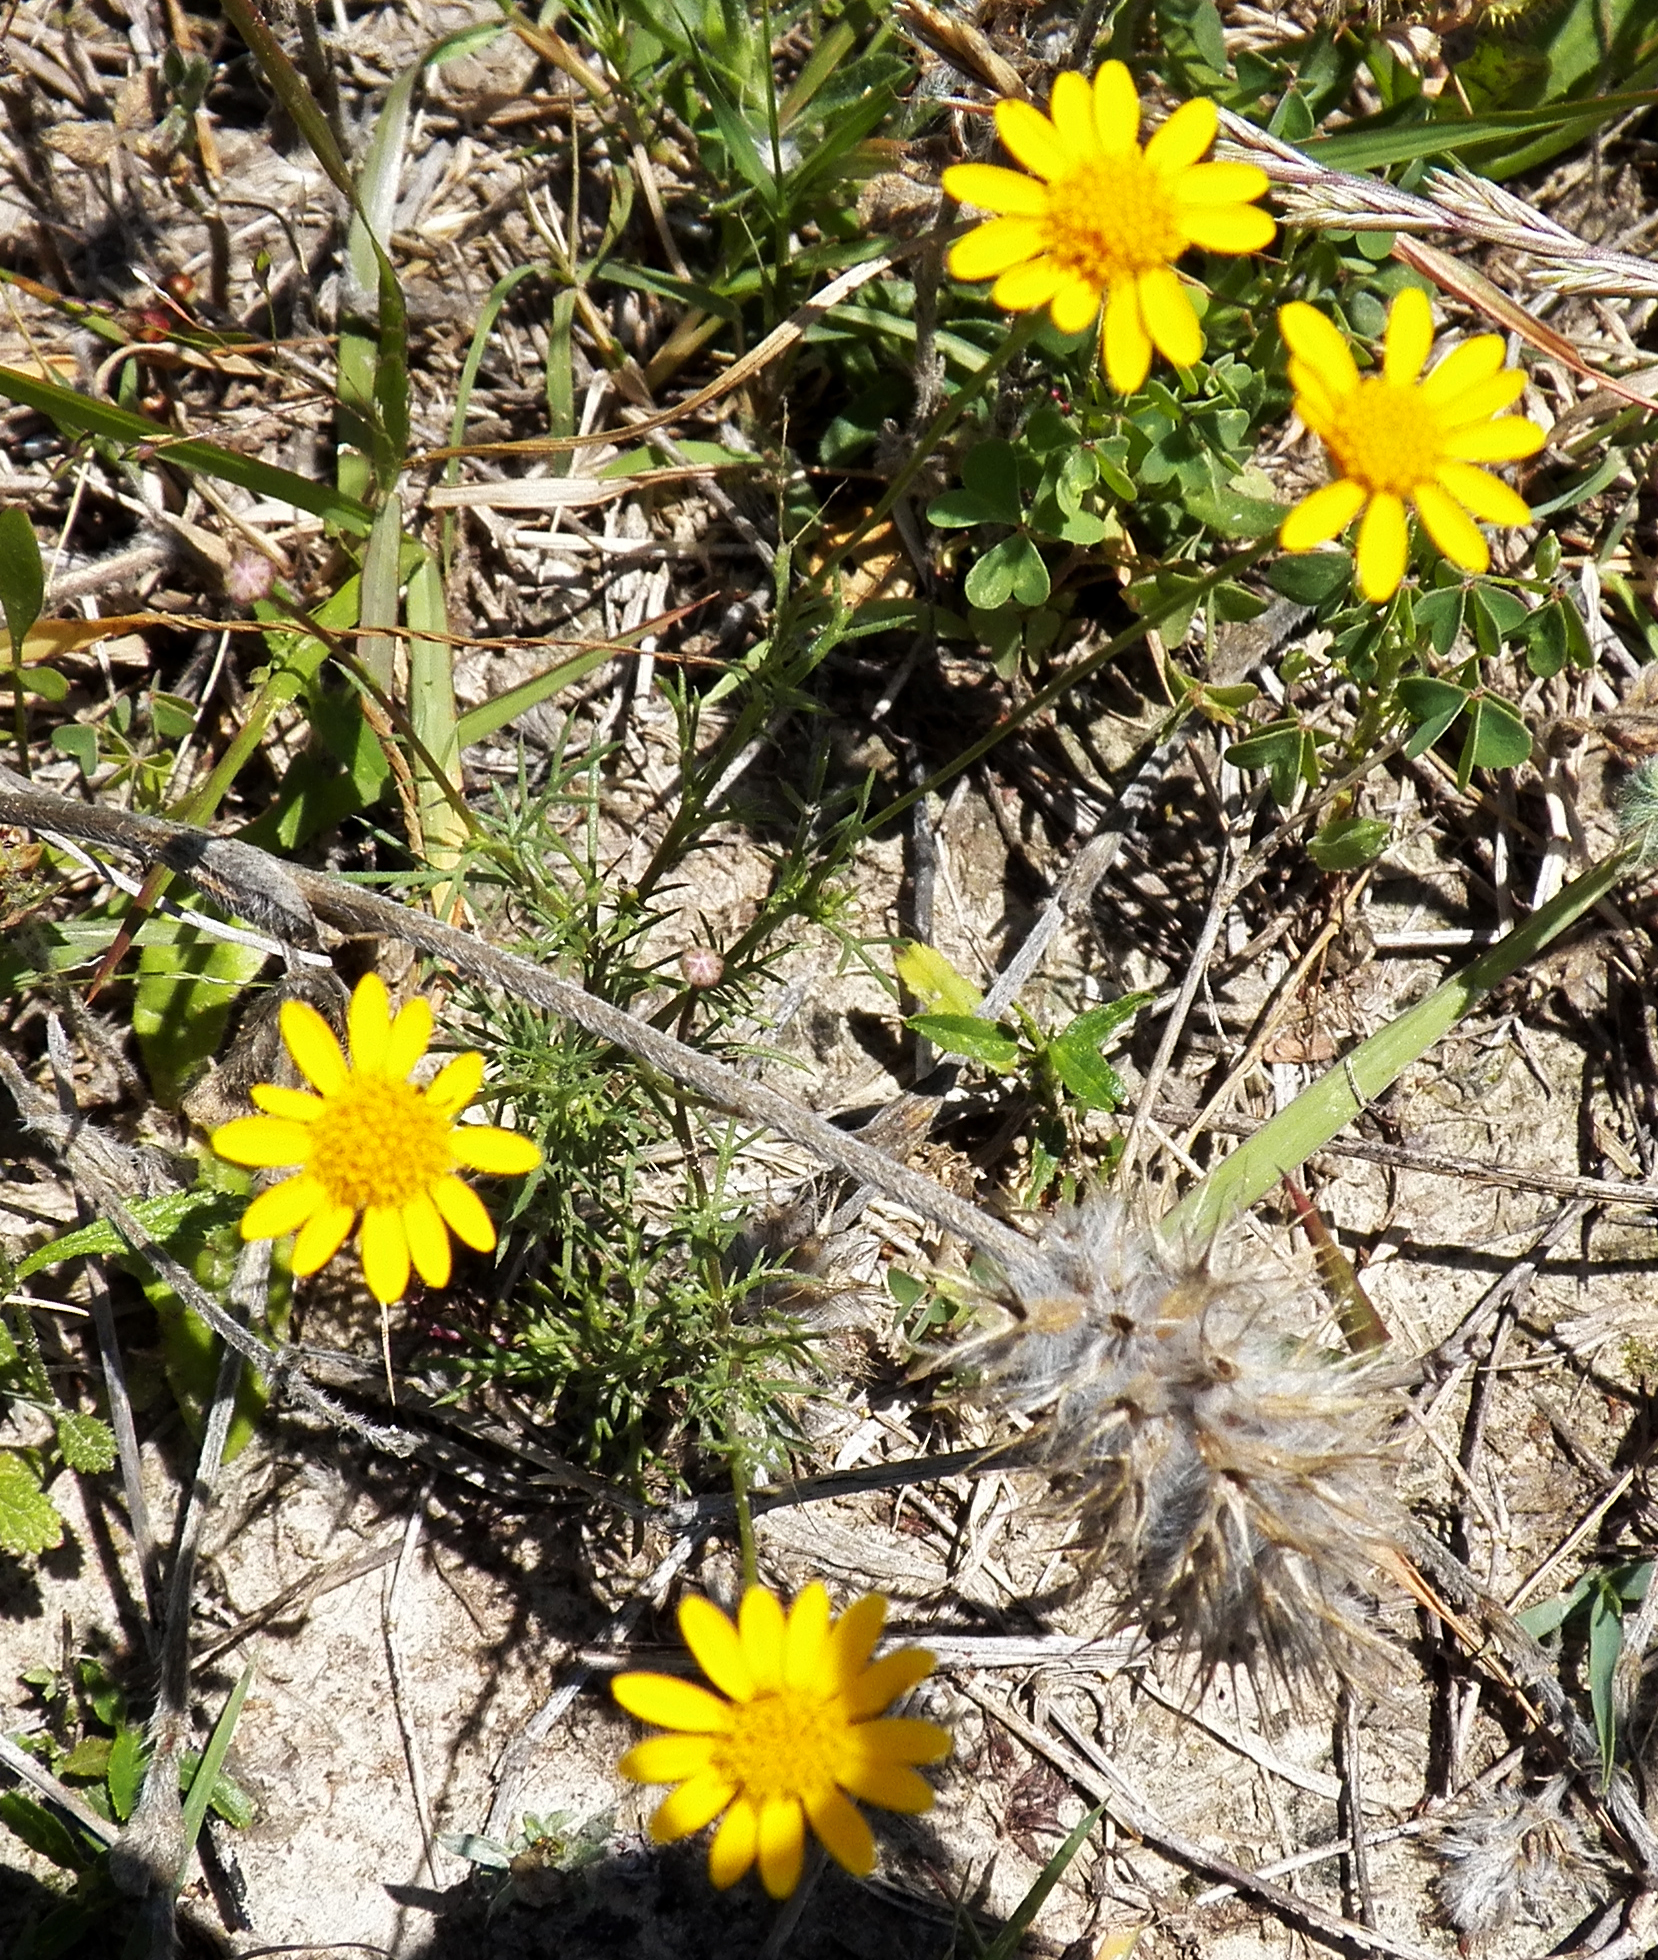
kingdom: Plantae
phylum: Tracheophyta
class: Magnoliopsida
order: Asterales
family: Asteraceae
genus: Thymophylla
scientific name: Thymophylla tenuiloba
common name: Dahlberg's daisy
